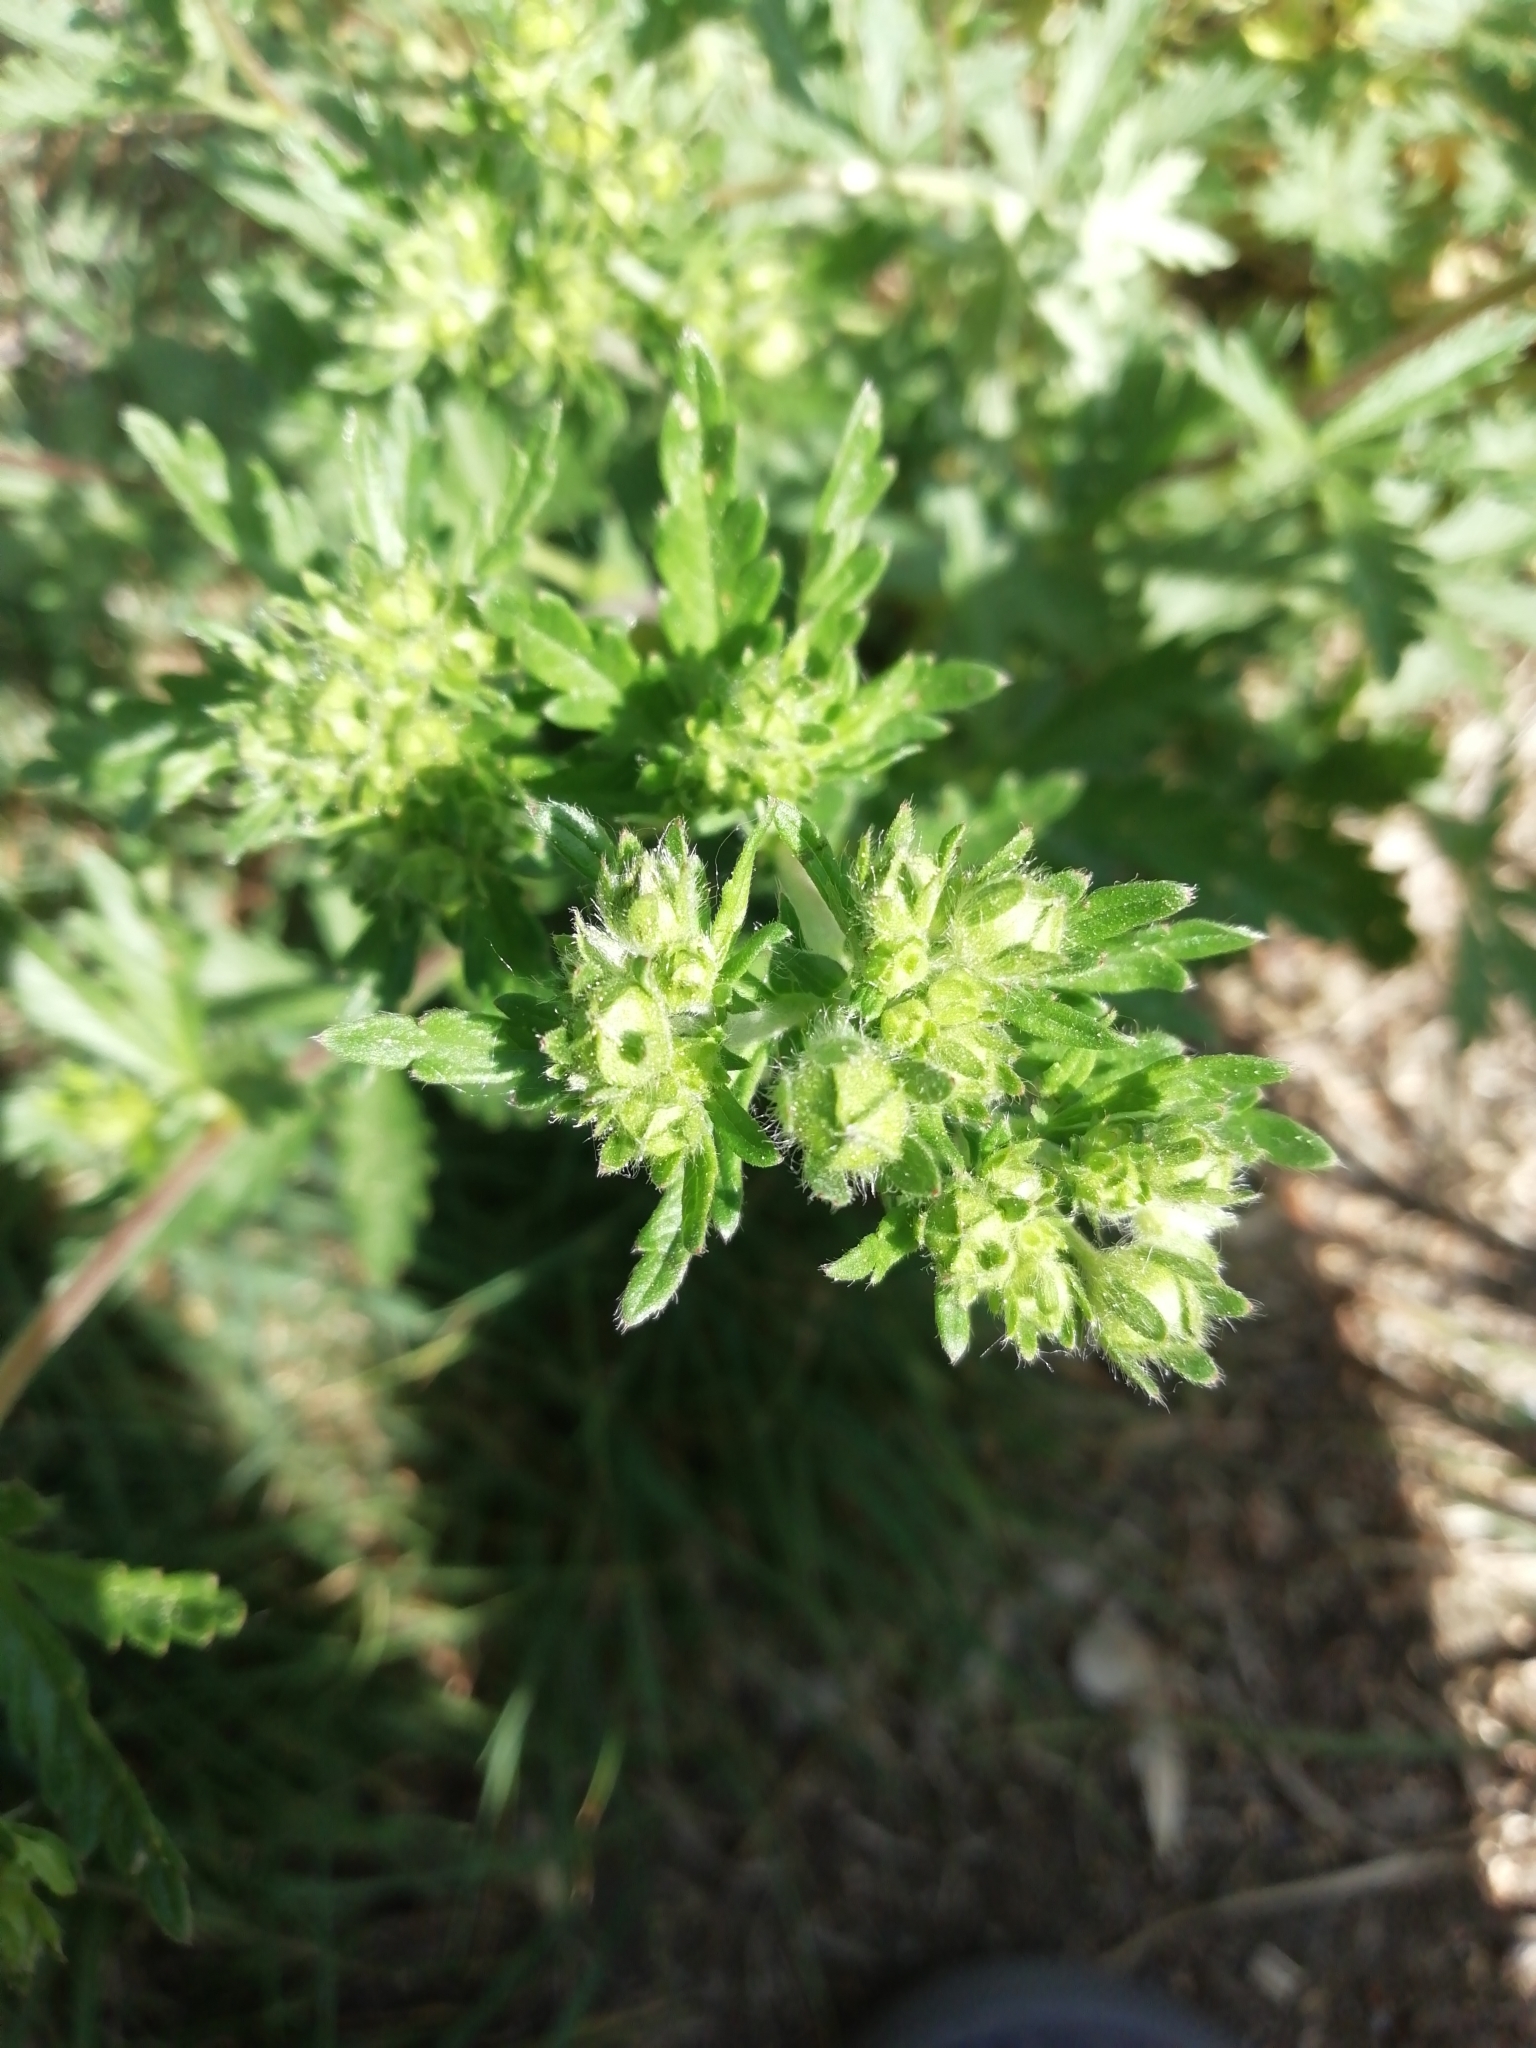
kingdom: Plantae
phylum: Tracheophyta
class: Magnoliopsida
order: Rosales
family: Rosaceae
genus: Potentilla
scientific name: Potentilla argentea
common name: Hoary cinquefoil
